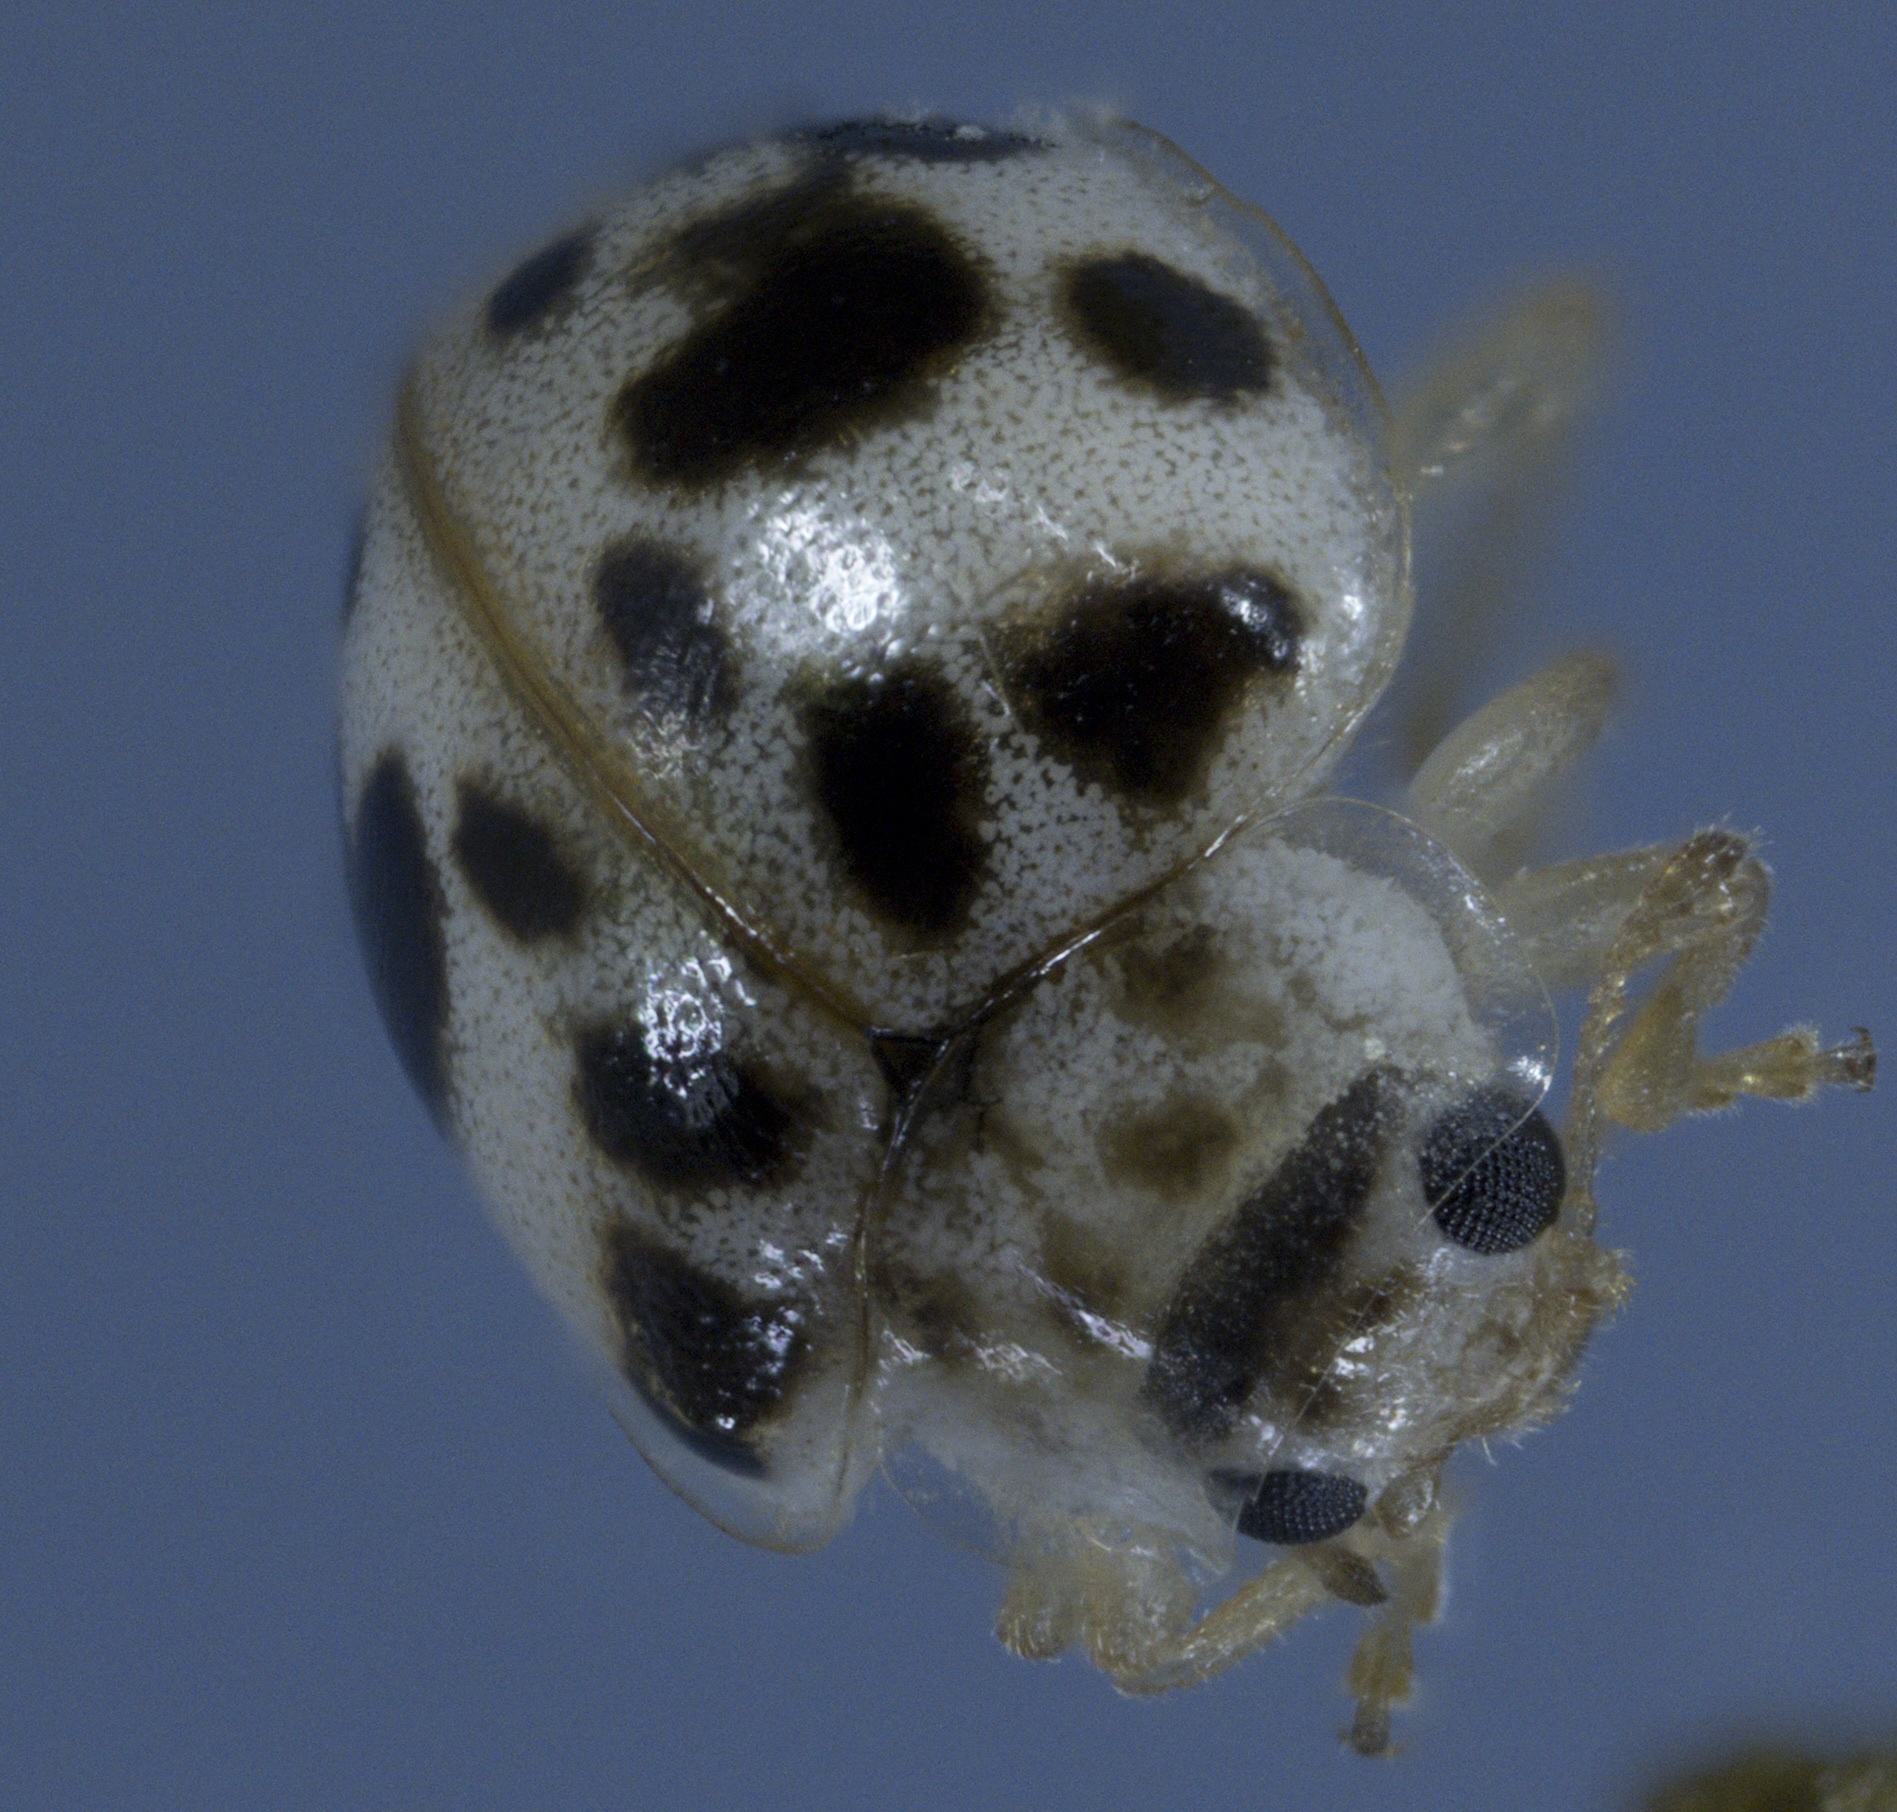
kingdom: Animalia
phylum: Arthropoda
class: Insecta
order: Coleoptera
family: Coccinellidae
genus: Psyllobora
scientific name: Psyllobora vigintimaculata
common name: Ladybird beetle
